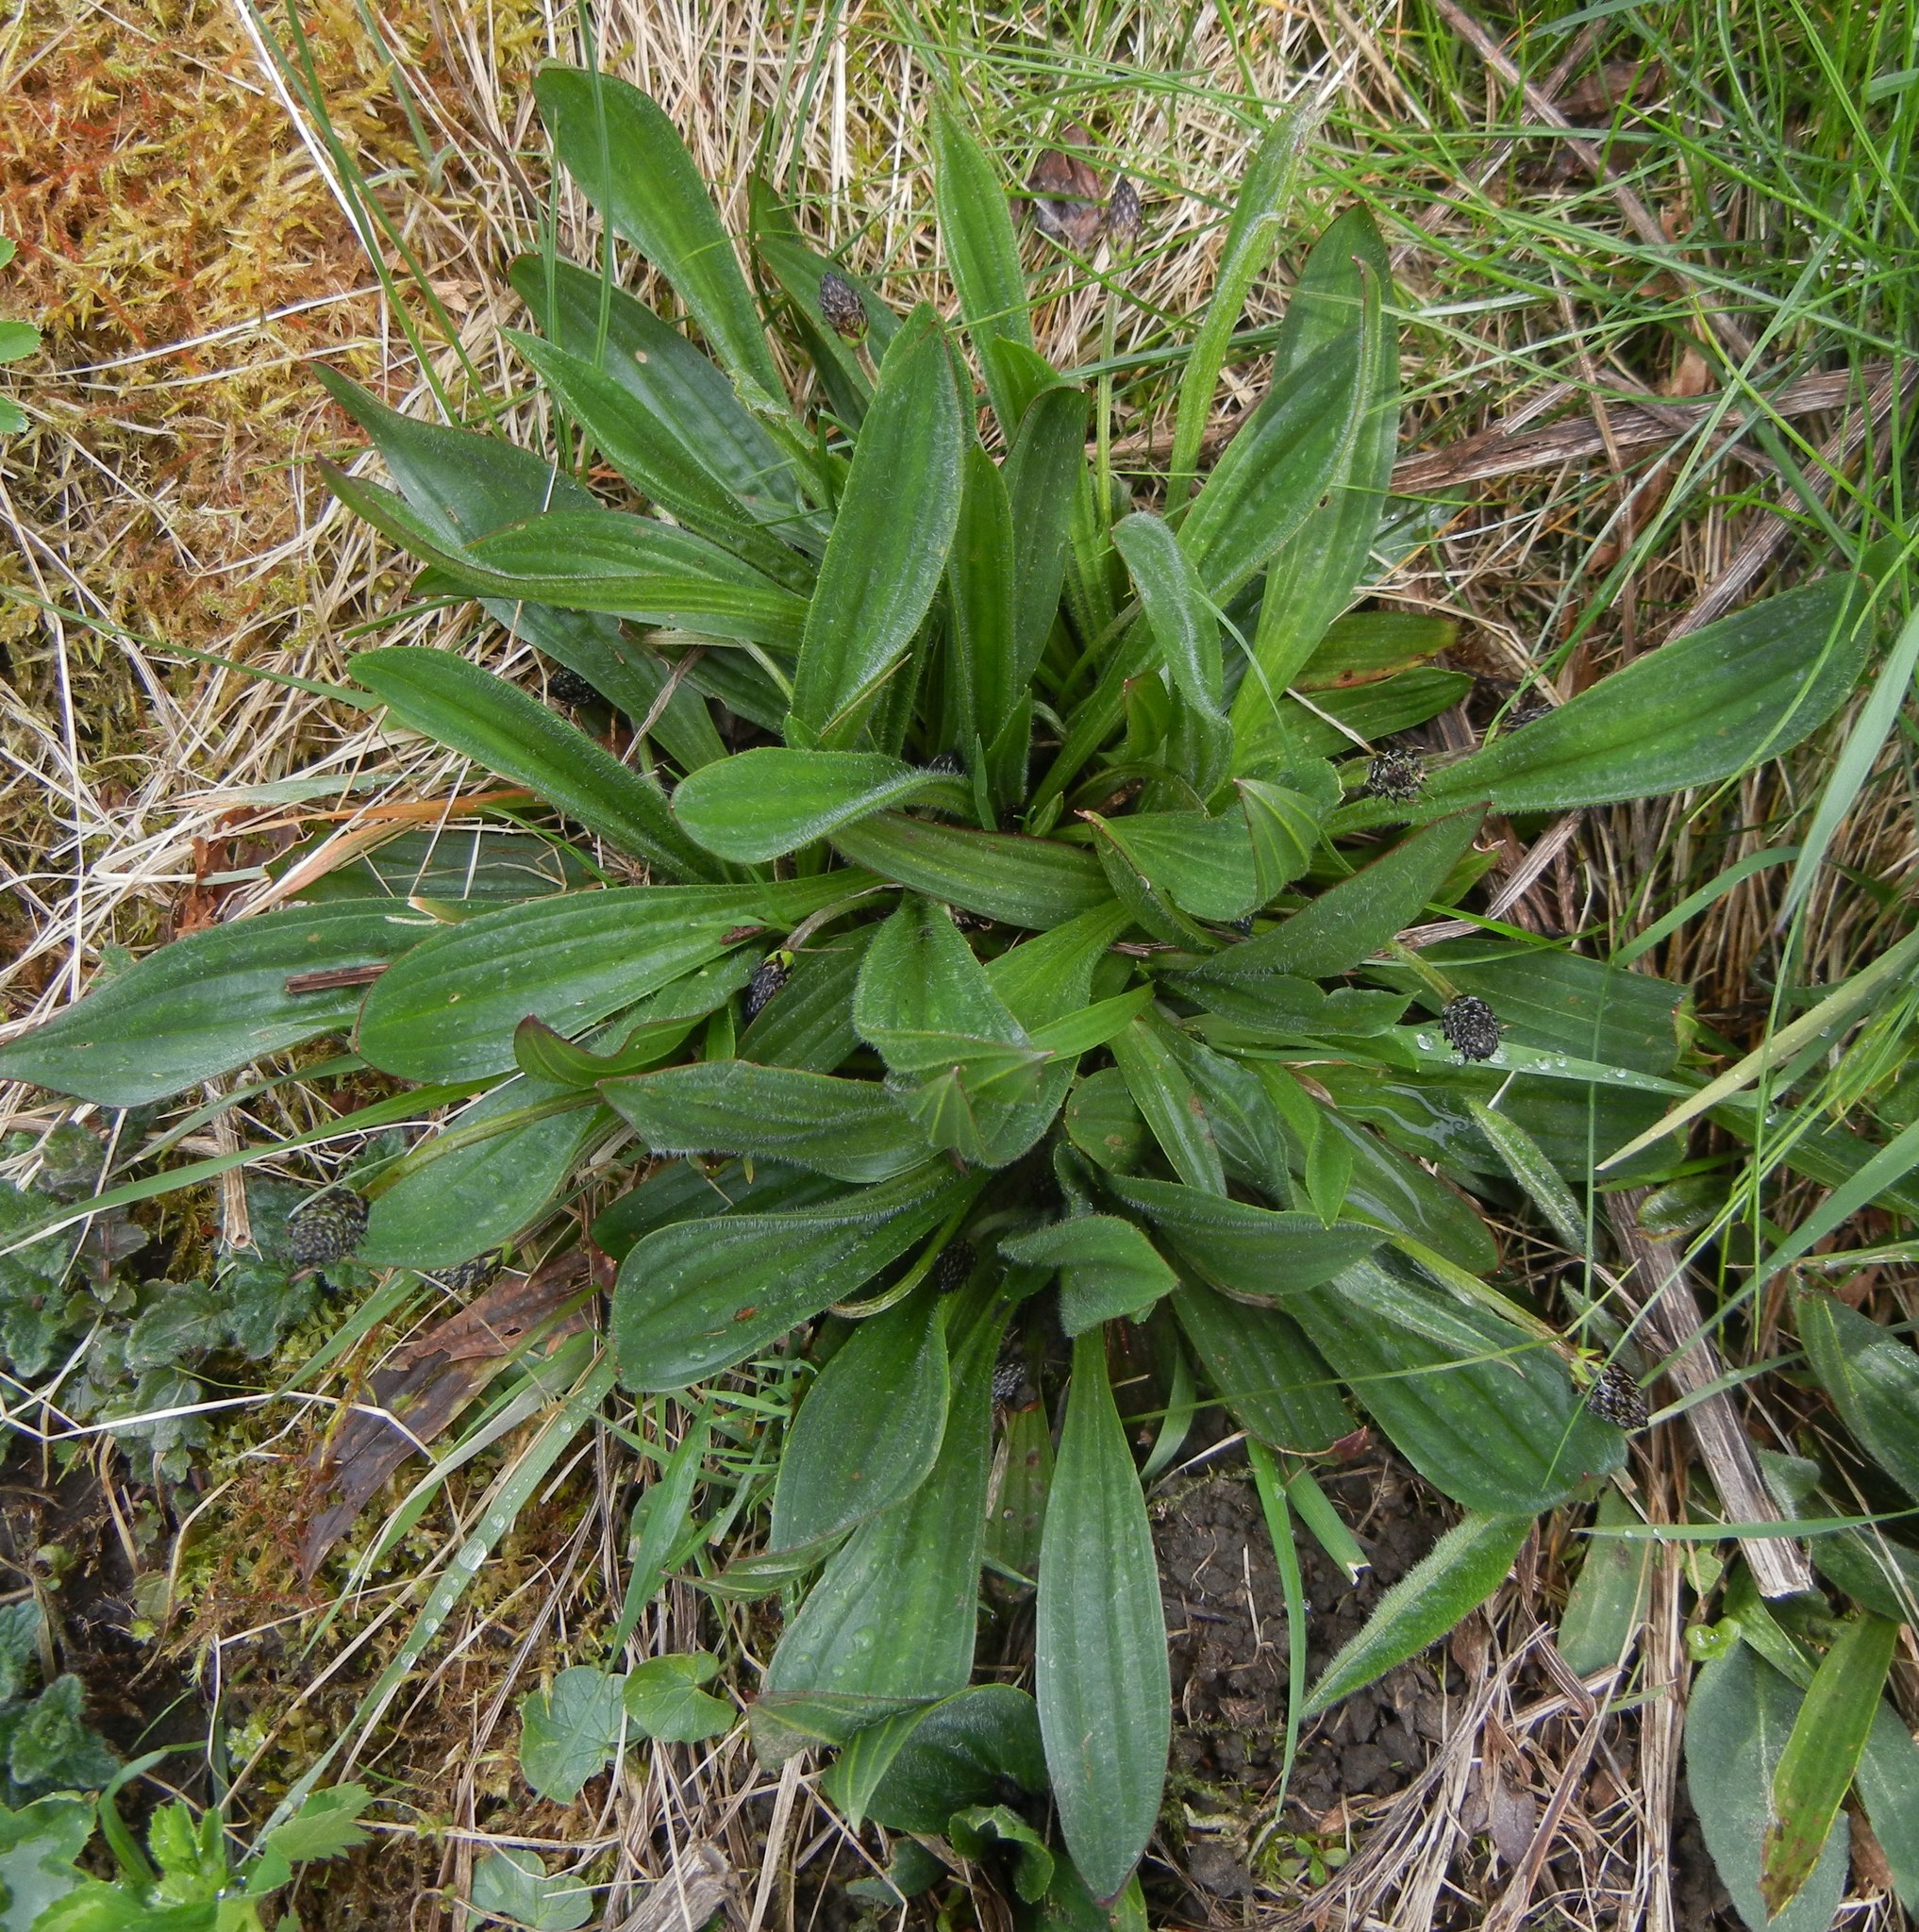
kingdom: Plantae
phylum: Tracheophyta
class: Magnoliopsida
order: Lamiales
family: Plantaginaceae
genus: Plantago
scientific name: Plantago lanceolata
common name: Ribwort plantain
